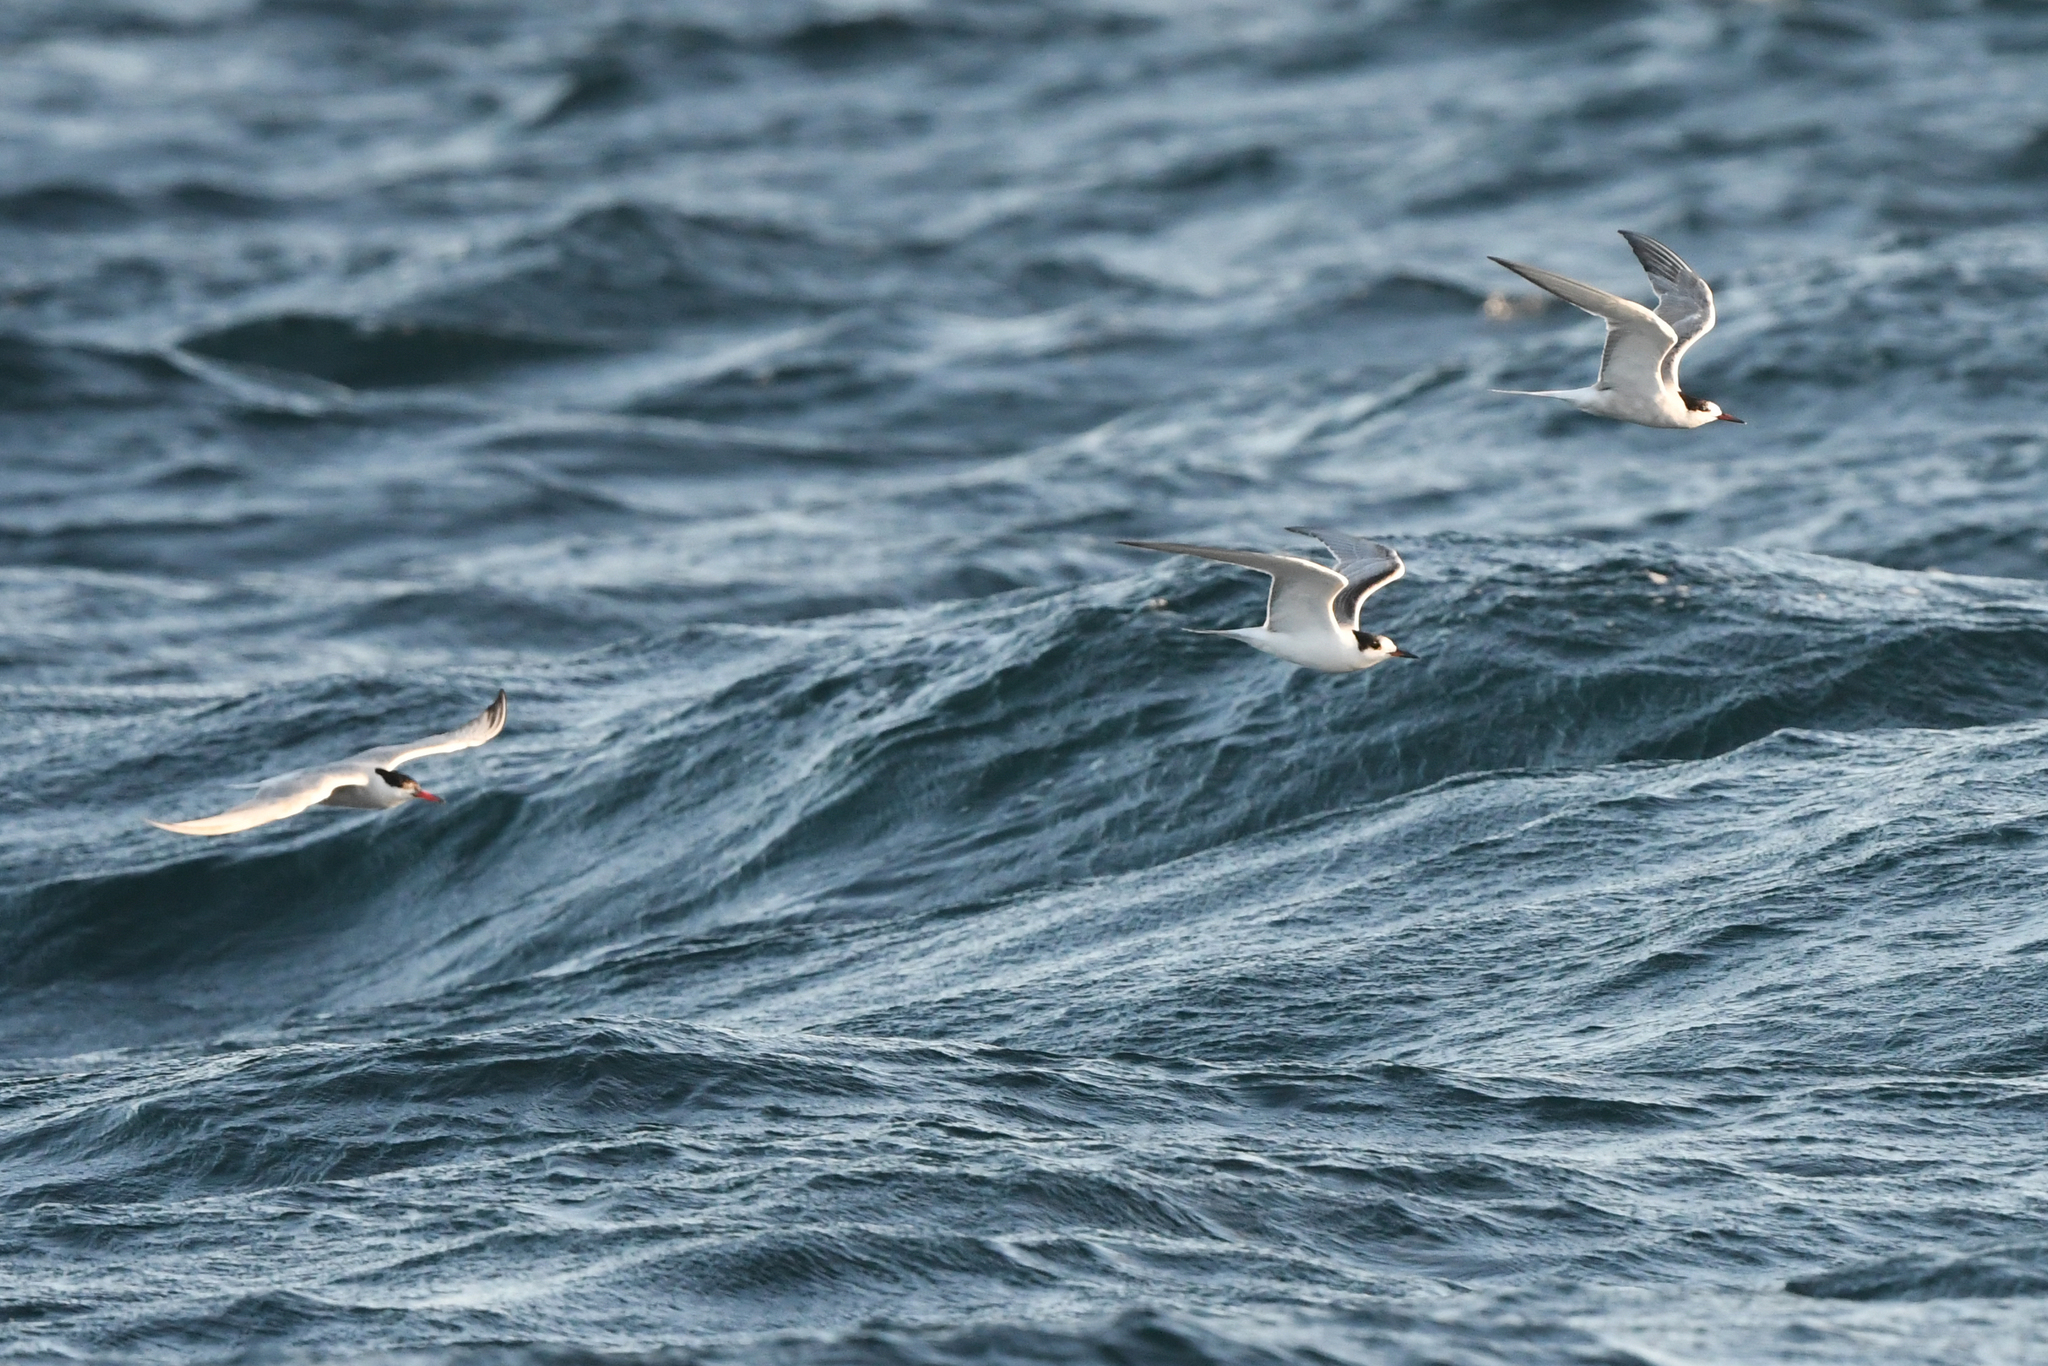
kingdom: Animalia
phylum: Chordata
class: Aves
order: Charadriiformes
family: Laridae
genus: Sterna
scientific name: Sterna hirundo
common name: Common tern
